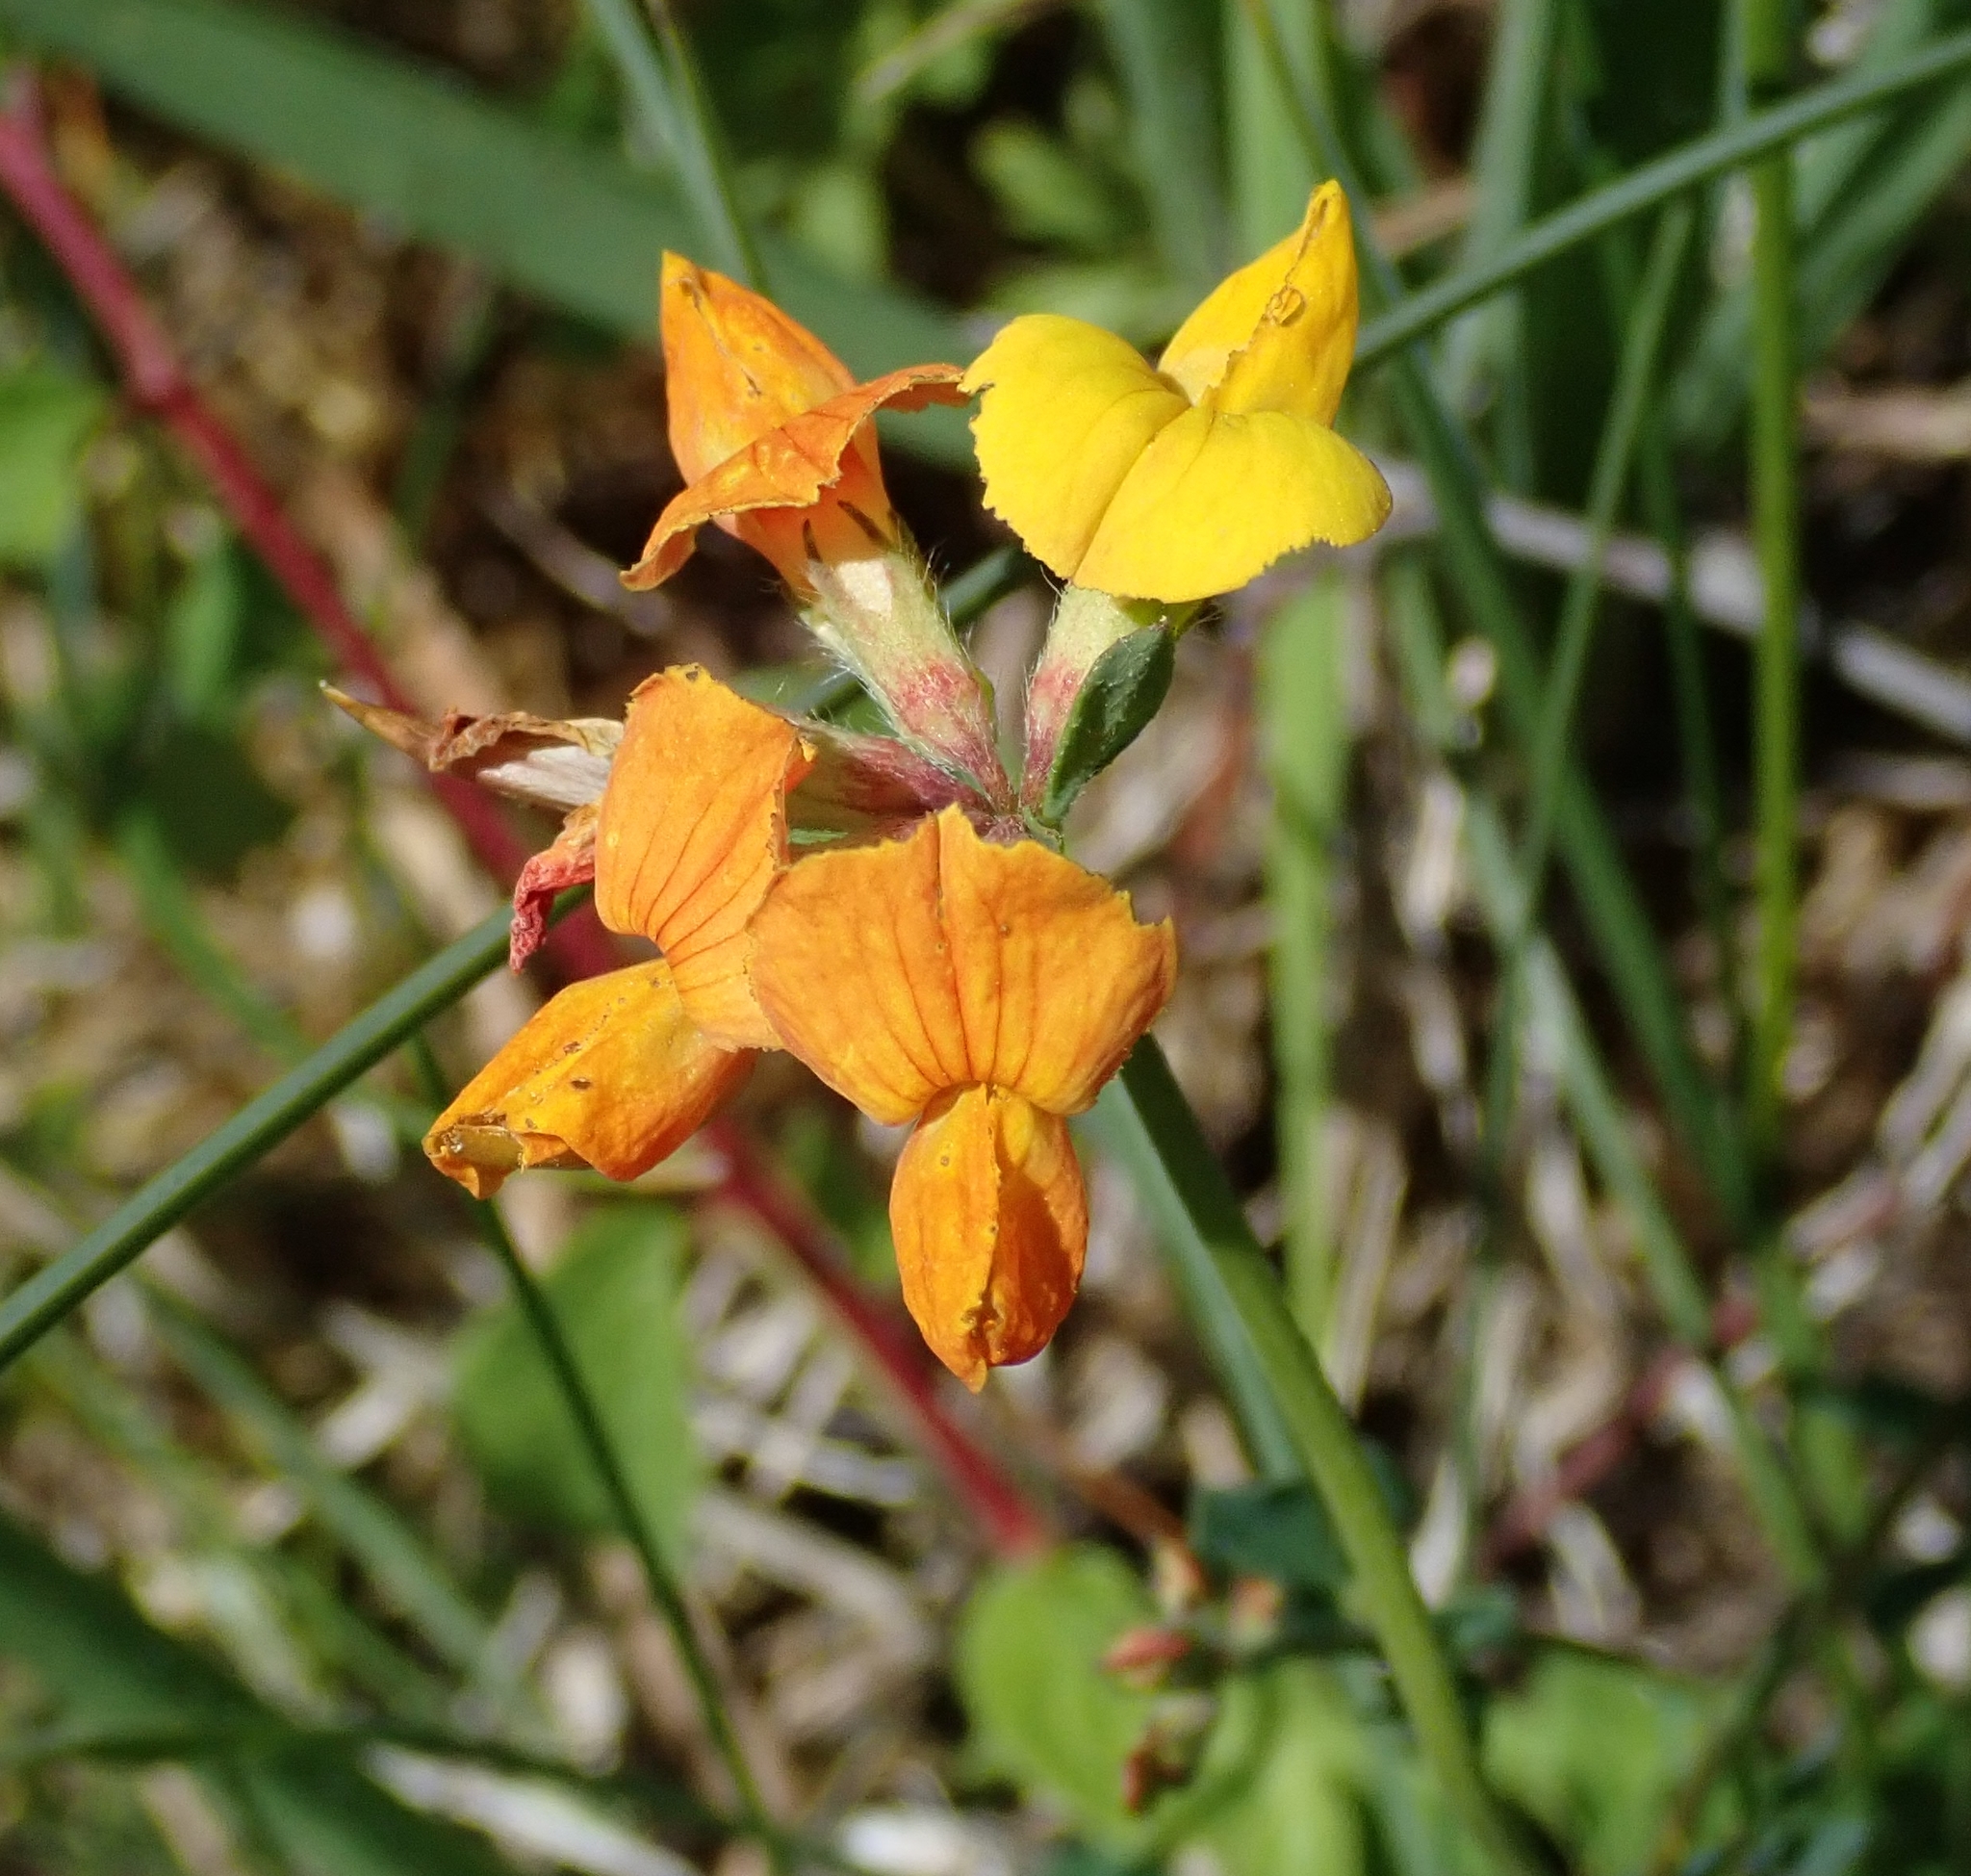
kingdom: Plantae
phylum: Tracheophyta
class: Magnoliopsida
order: Fabales
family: Fabaceae
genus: Lotus
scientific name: Lotus corniculatus
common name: Common bird's-foot-trefoil
